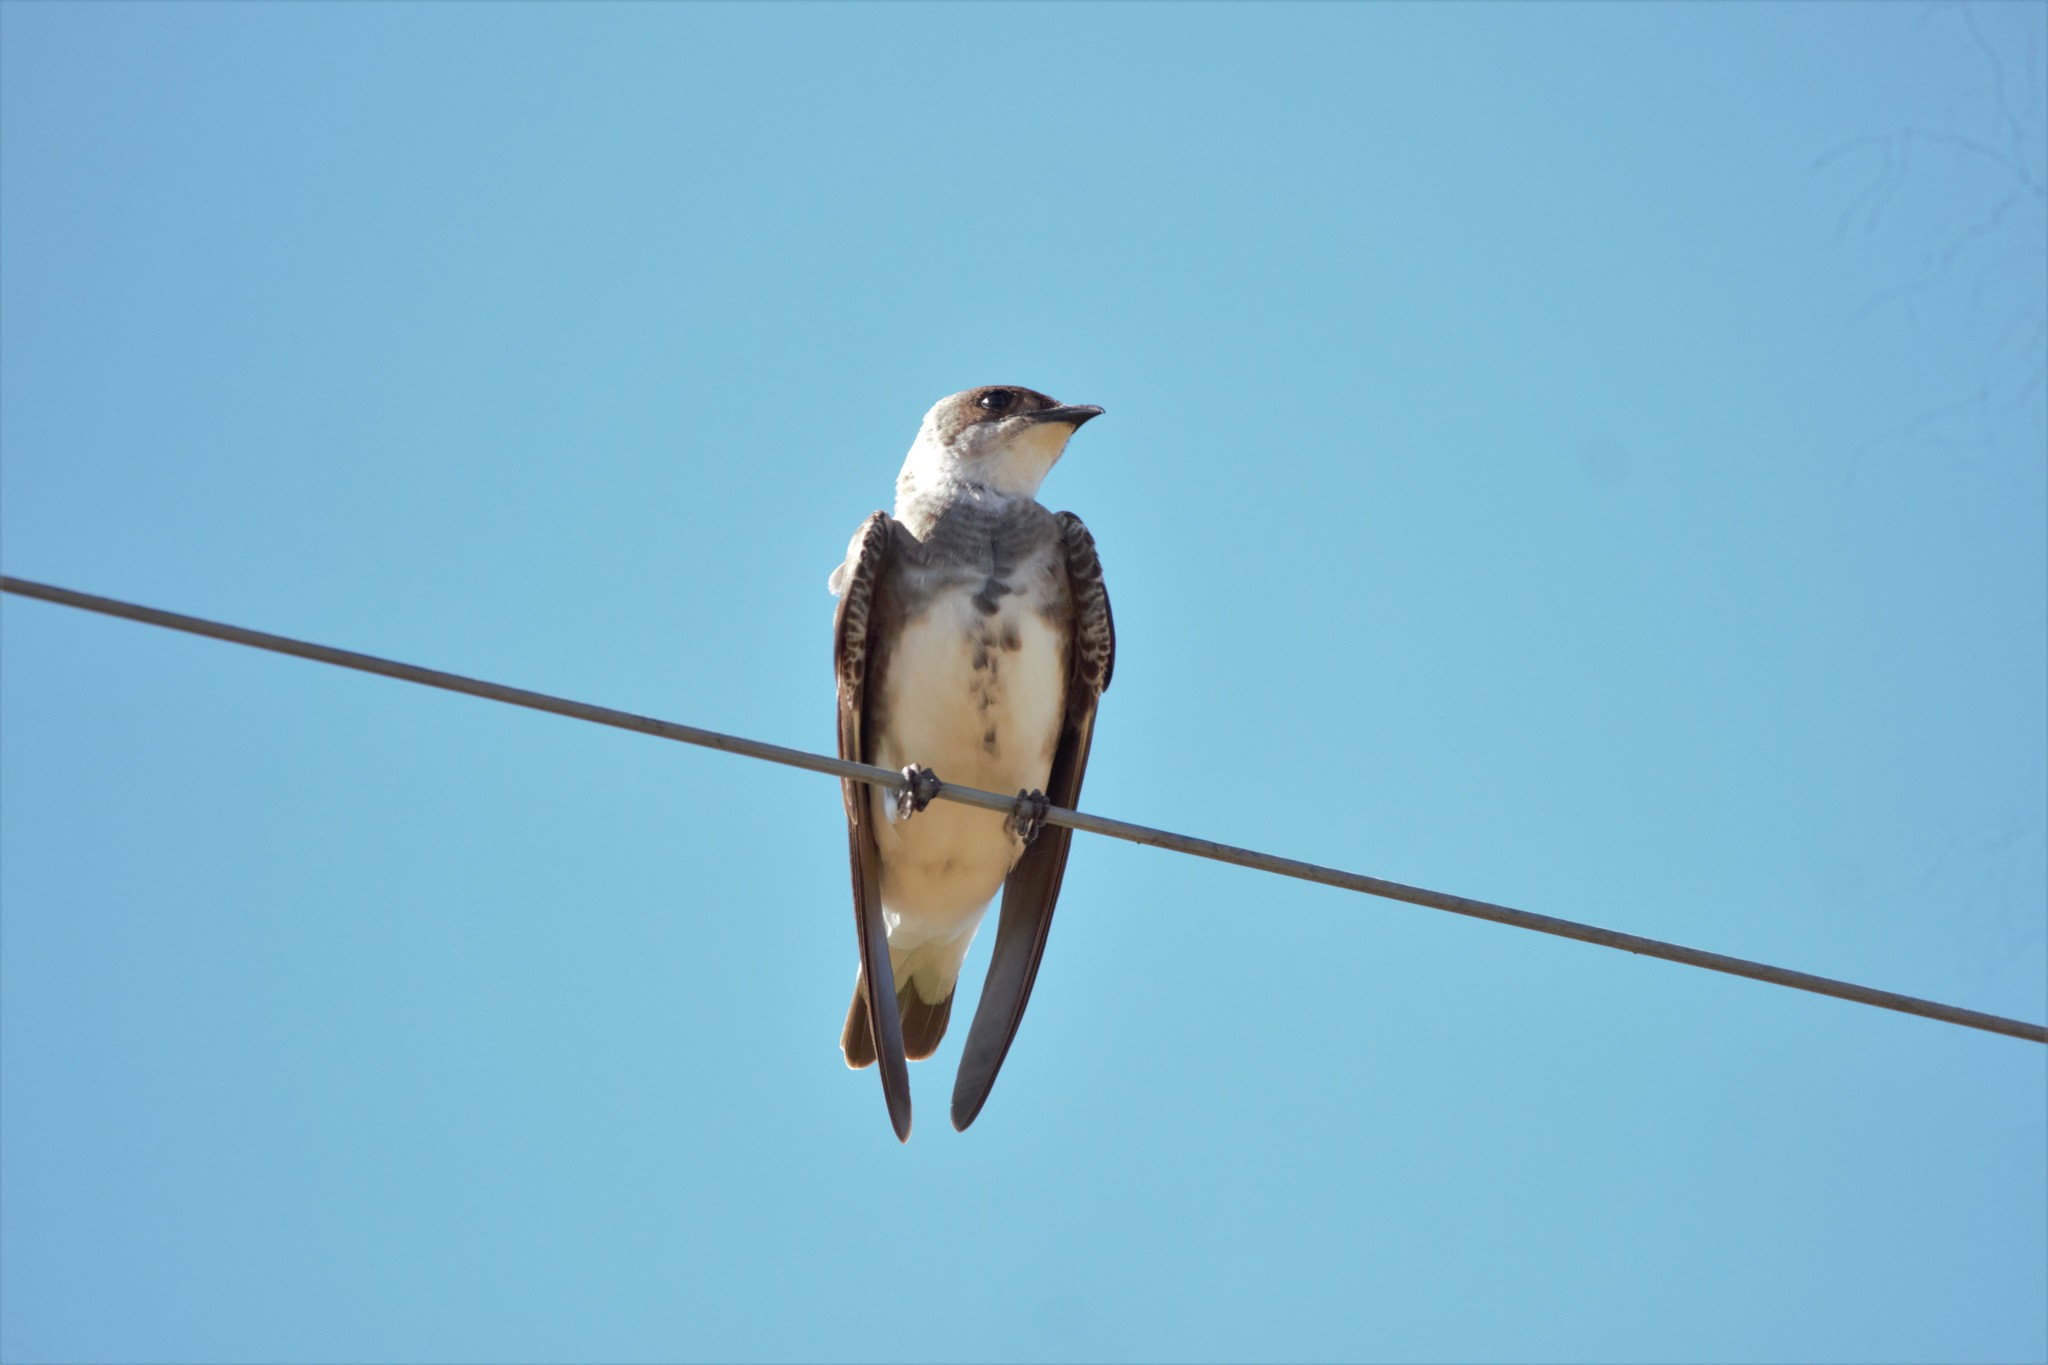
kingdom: Animalia
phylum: Chordata
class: Aves
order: Passeriformes
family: Hirundinidae
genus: Progne
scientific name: Progne tapera
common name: Brown-chested martin
